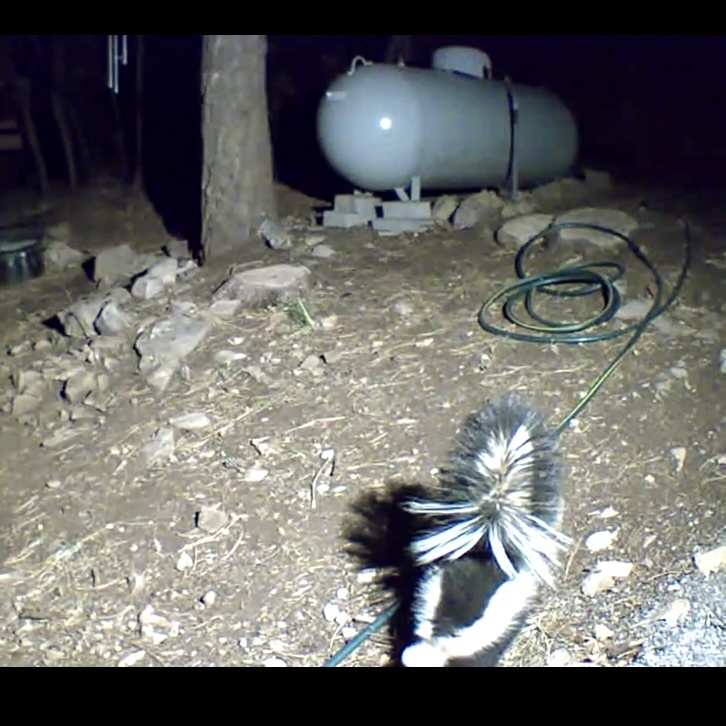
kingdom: Animalia
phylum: Chordata
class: Mammalia
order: Carnivora
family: Mephitidae
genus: Mephitis
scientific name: Mephitis mephitis
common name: Striped skunk
